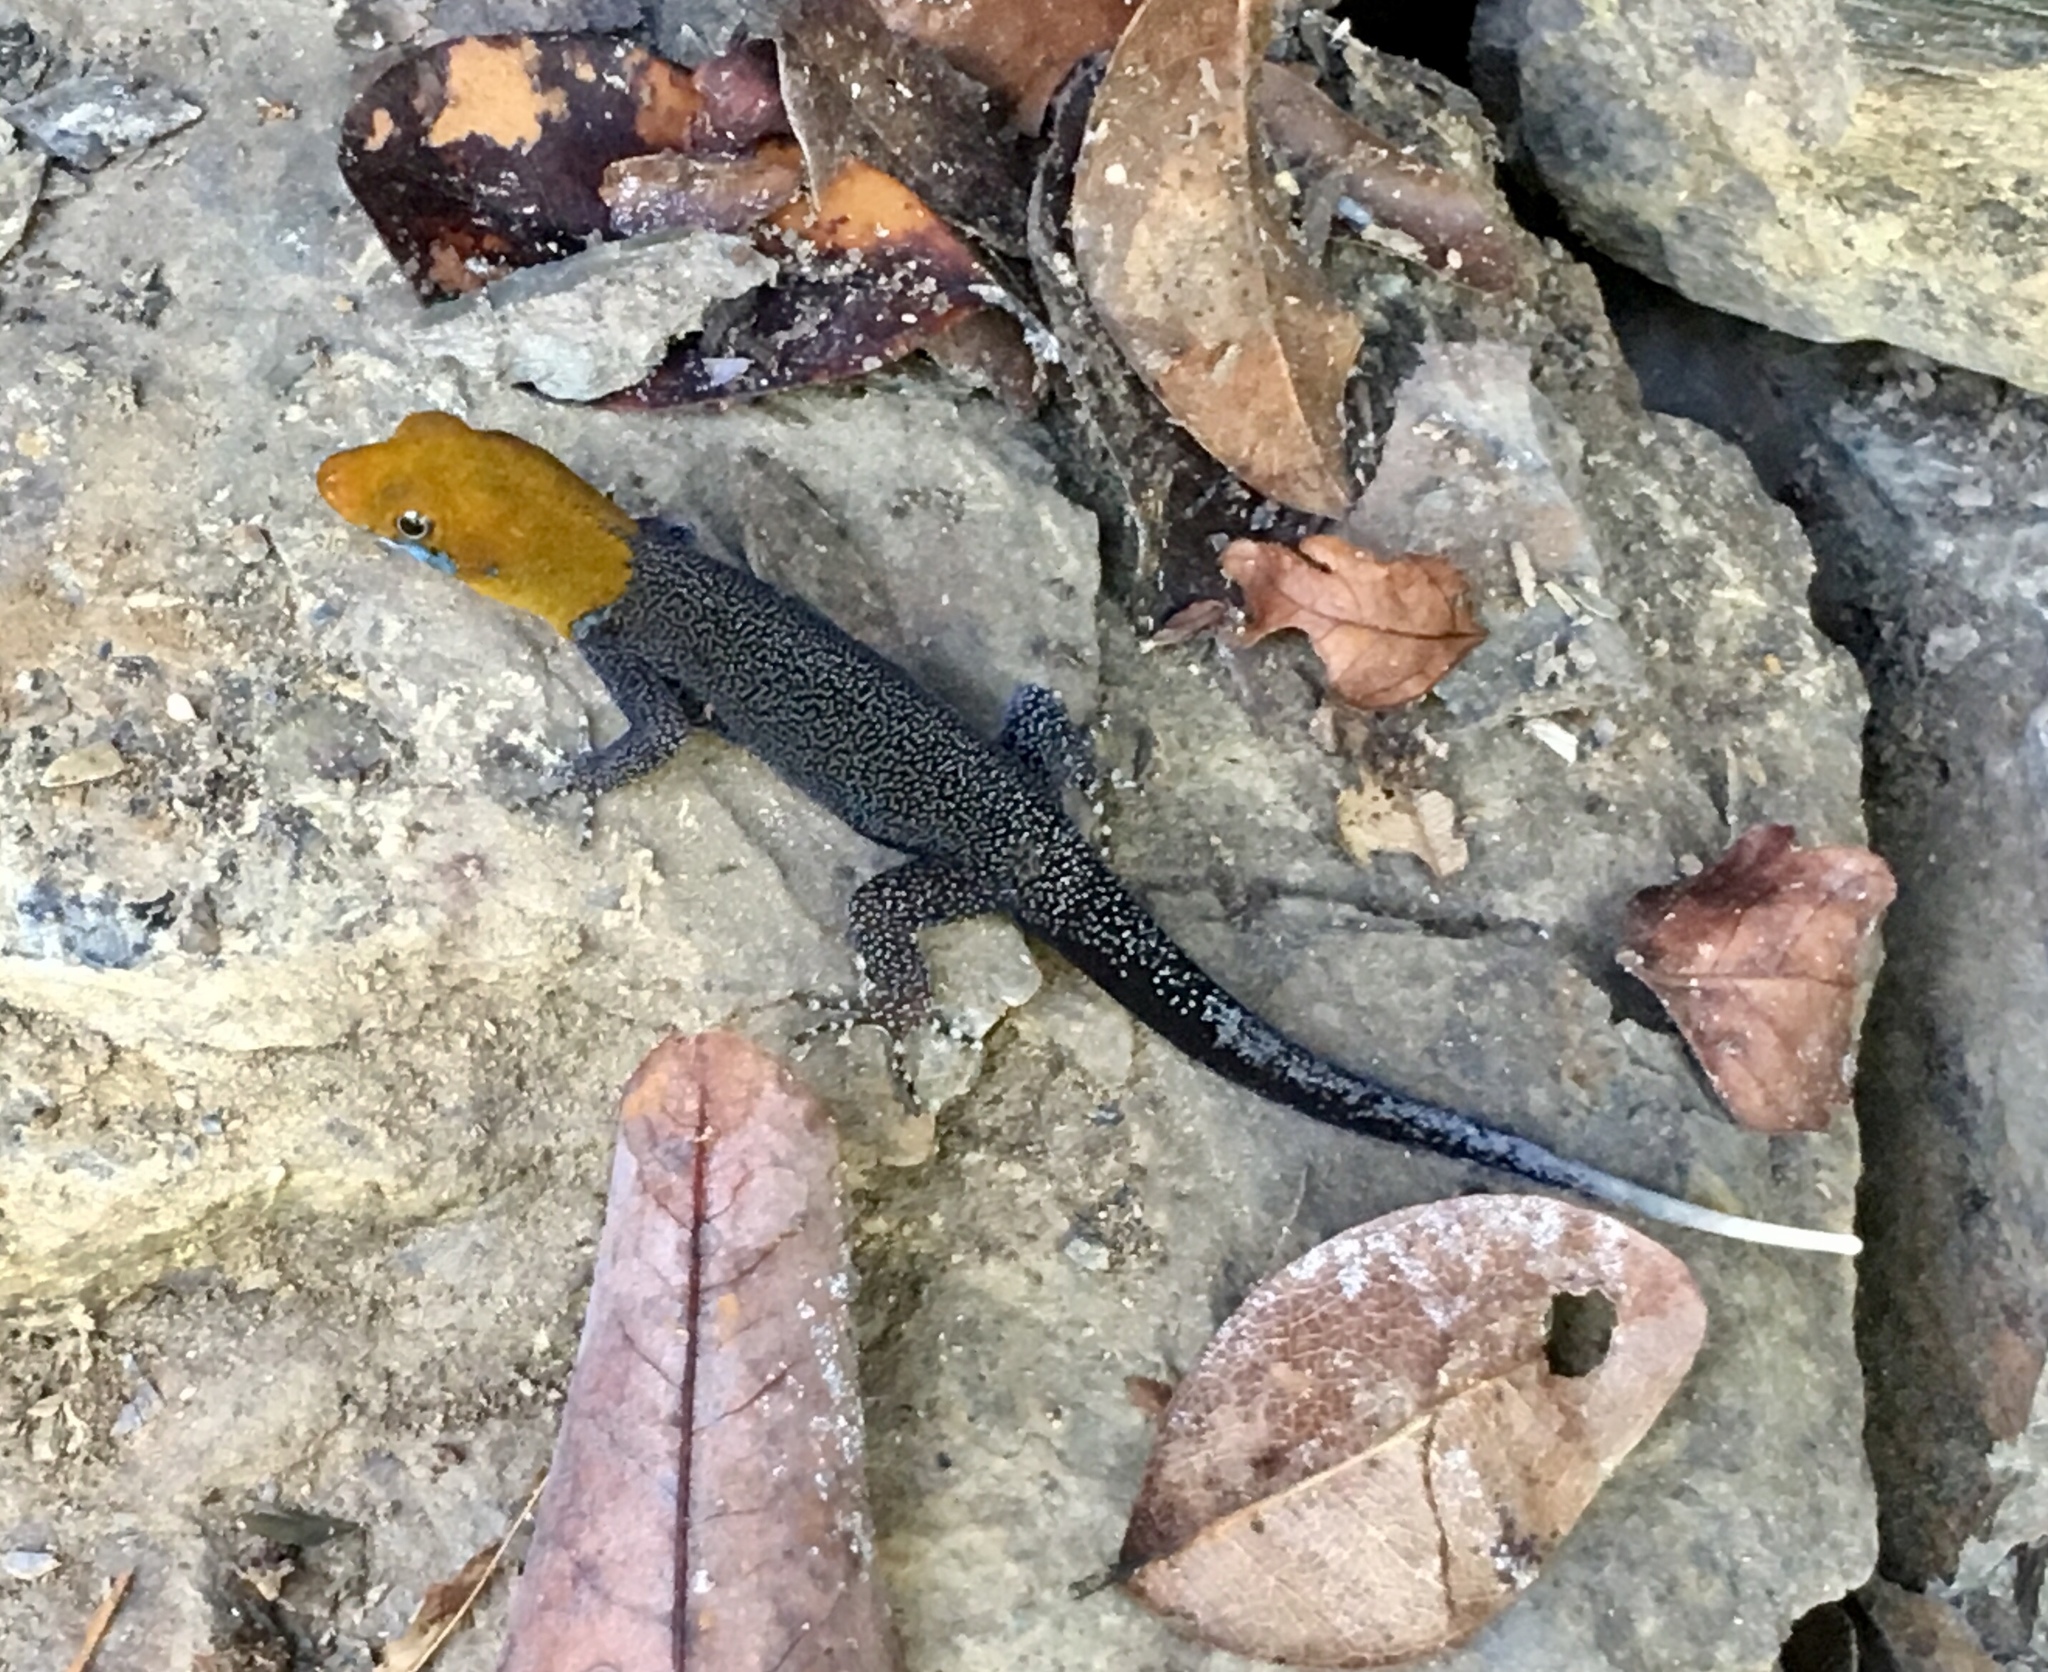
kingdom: Animalia
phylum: Chordata
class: Squamata
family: Sphaerodactylidae
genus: Gonatodes
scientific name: Gonatodes albogularis
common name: Yellow-headed gecko
